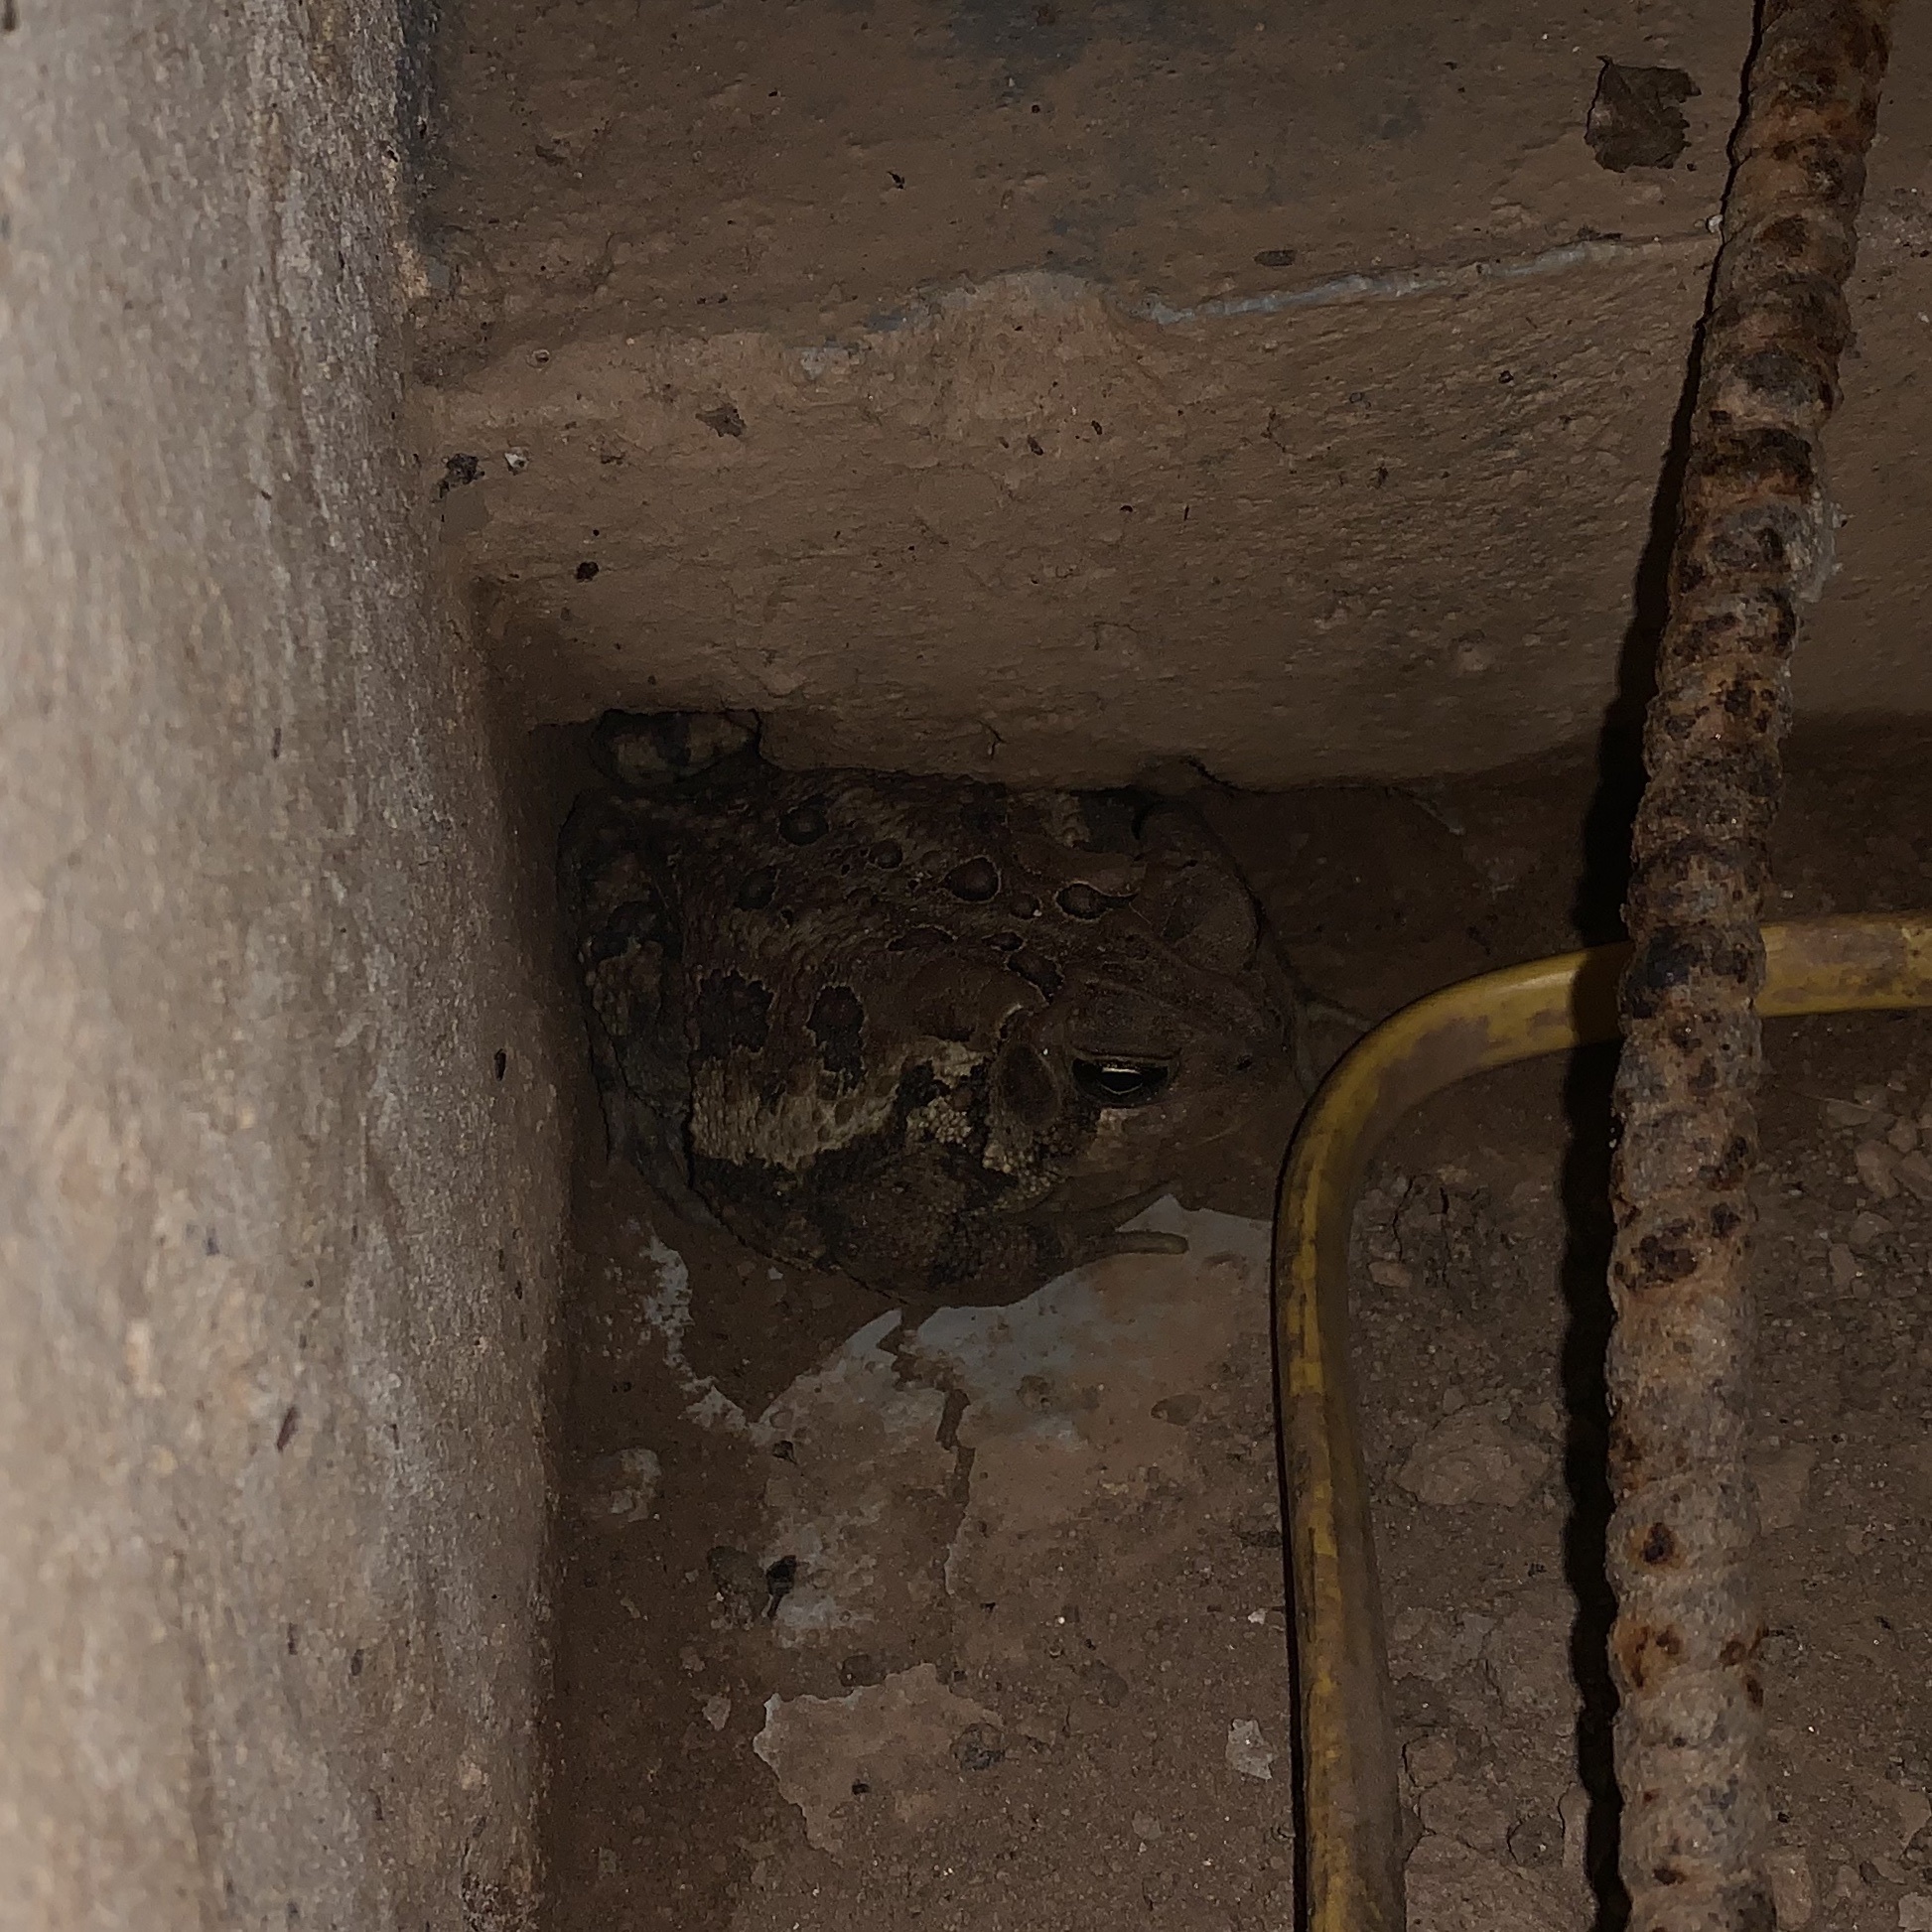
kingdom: Animalia
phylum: Chordata
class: Amphibia
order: Anura
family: Bufonidae
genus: Anaxyrus
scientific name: Anaxyrus americanus
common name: American toad
